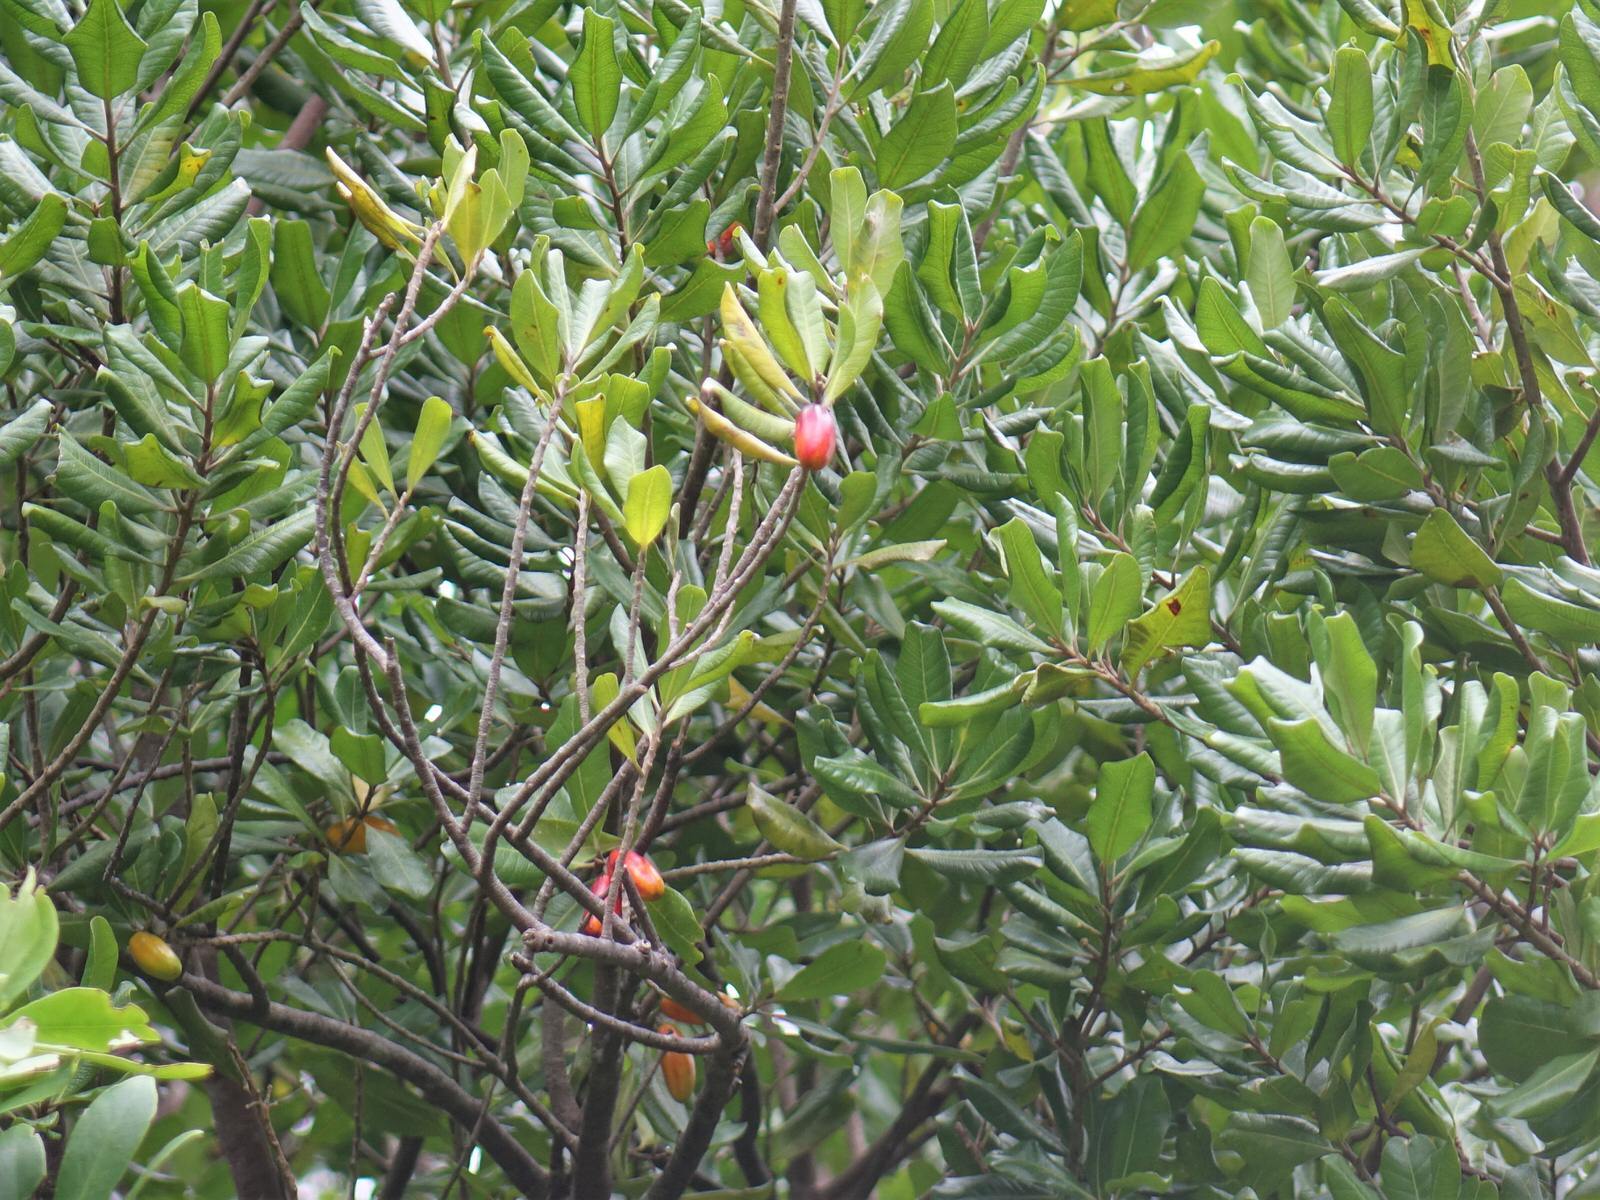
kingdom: Plantae
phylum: Tracheophyta
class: Magnoliopsida
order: Ericales
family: Sapotaceae
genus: Planchonella
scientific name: Planchonella costata
